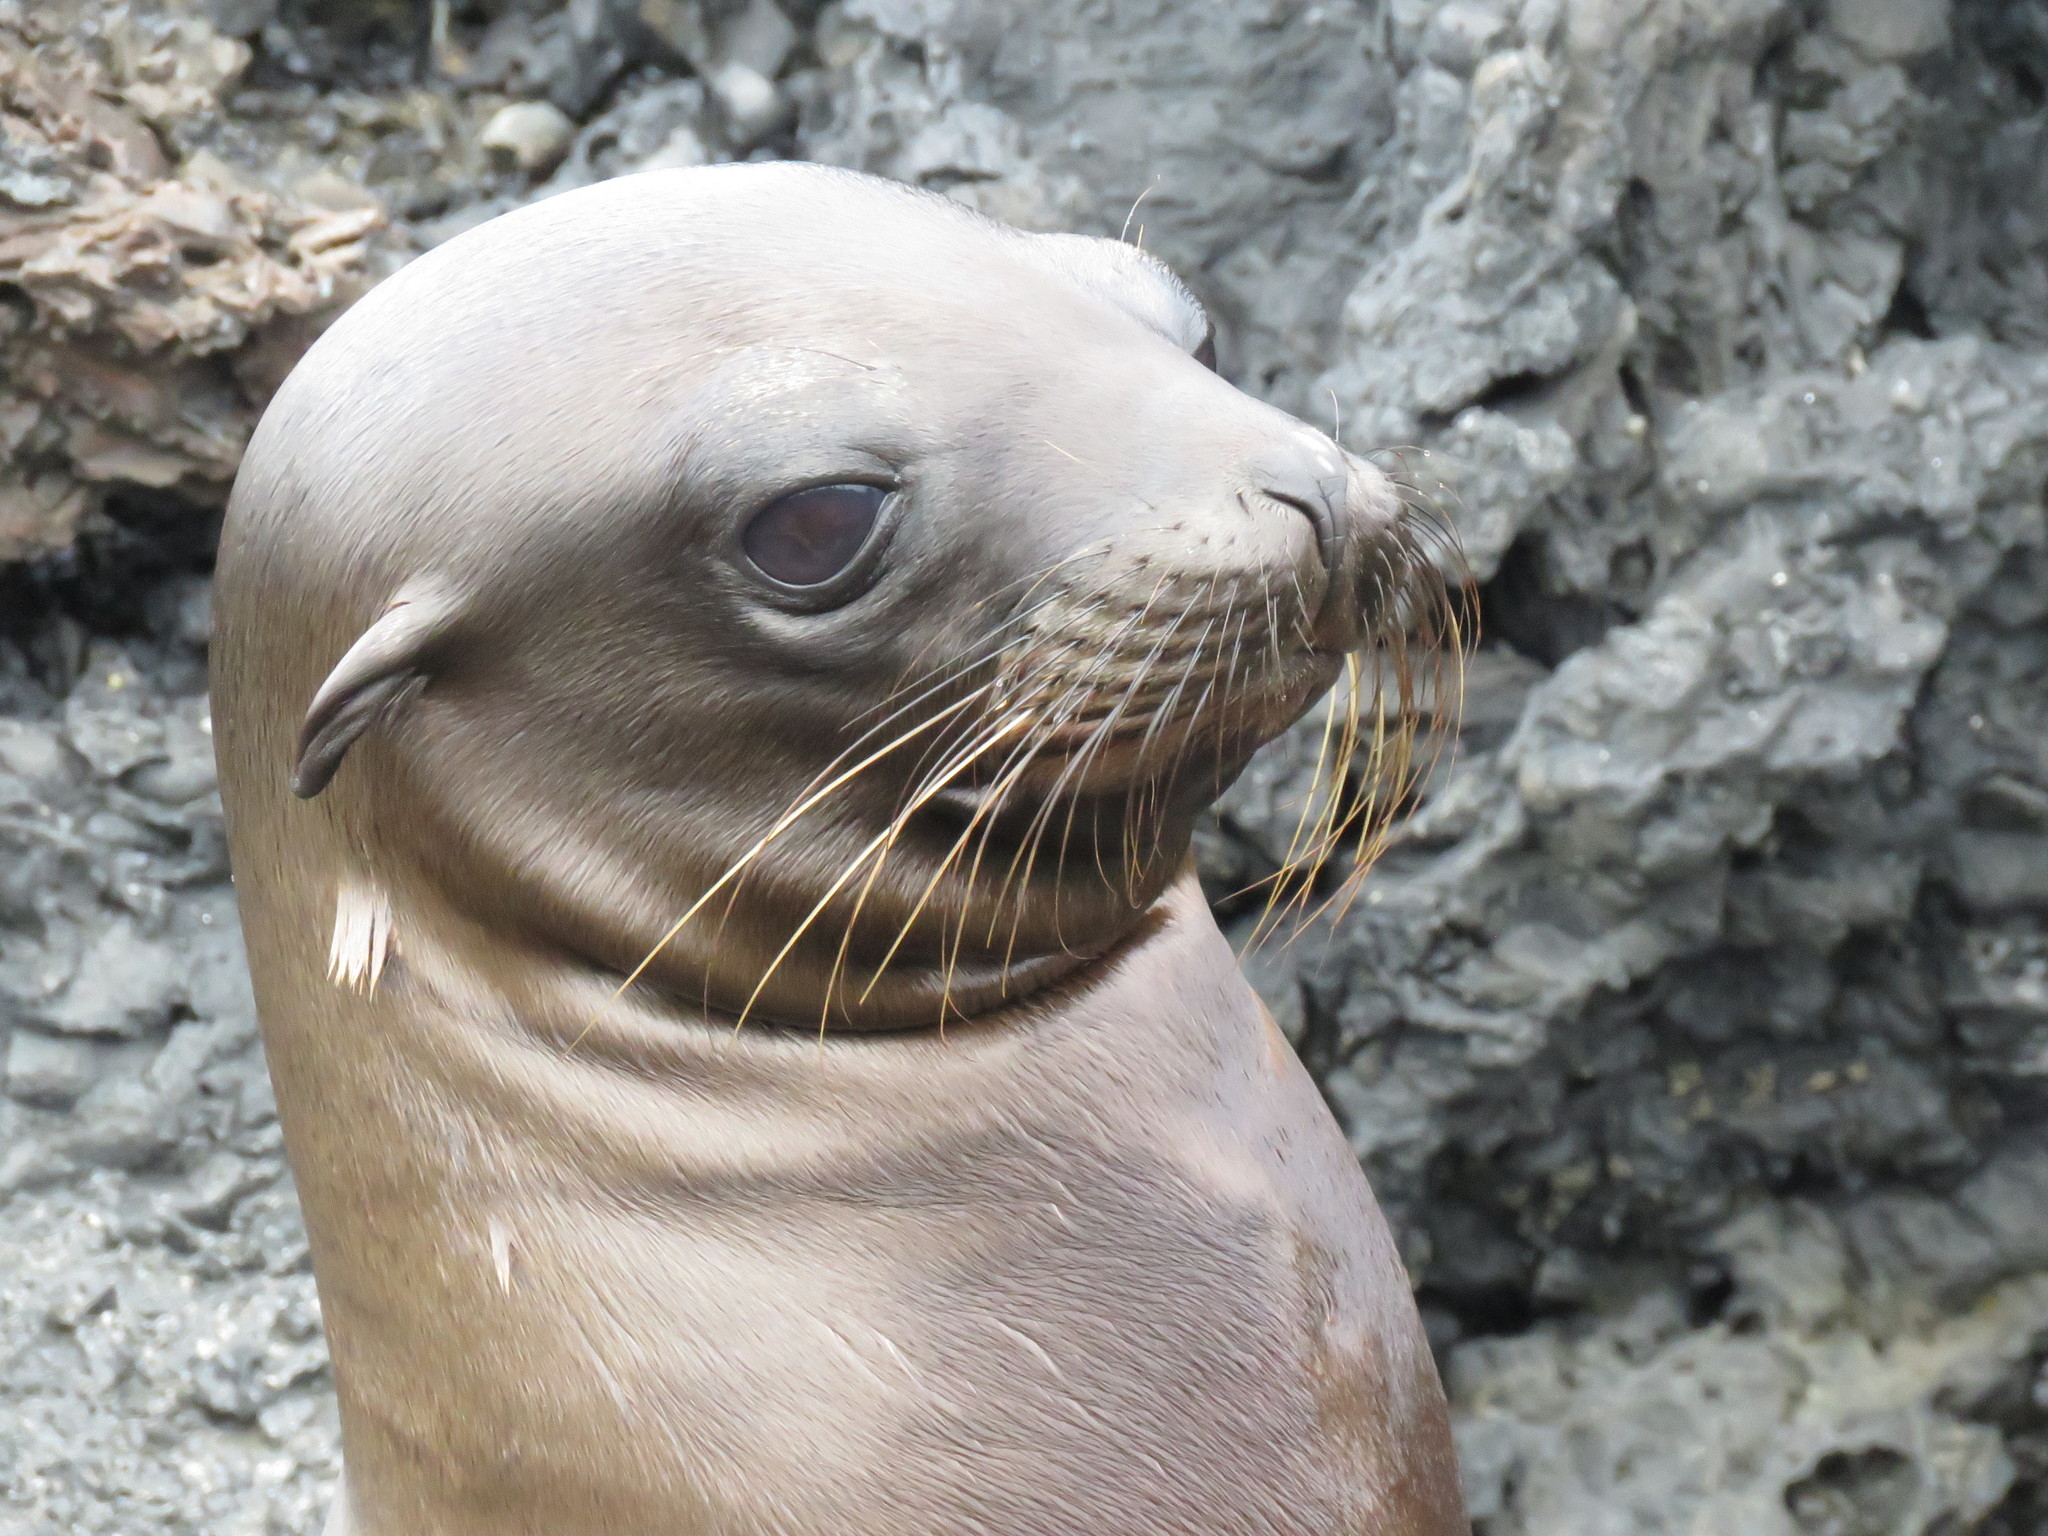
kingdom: Animalia
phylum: Chordata
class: Mammalia
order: Carnivora
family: Otariidae
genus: Zalophus
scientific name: Zalophus wollebaeki
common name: Galapagos sea lion
